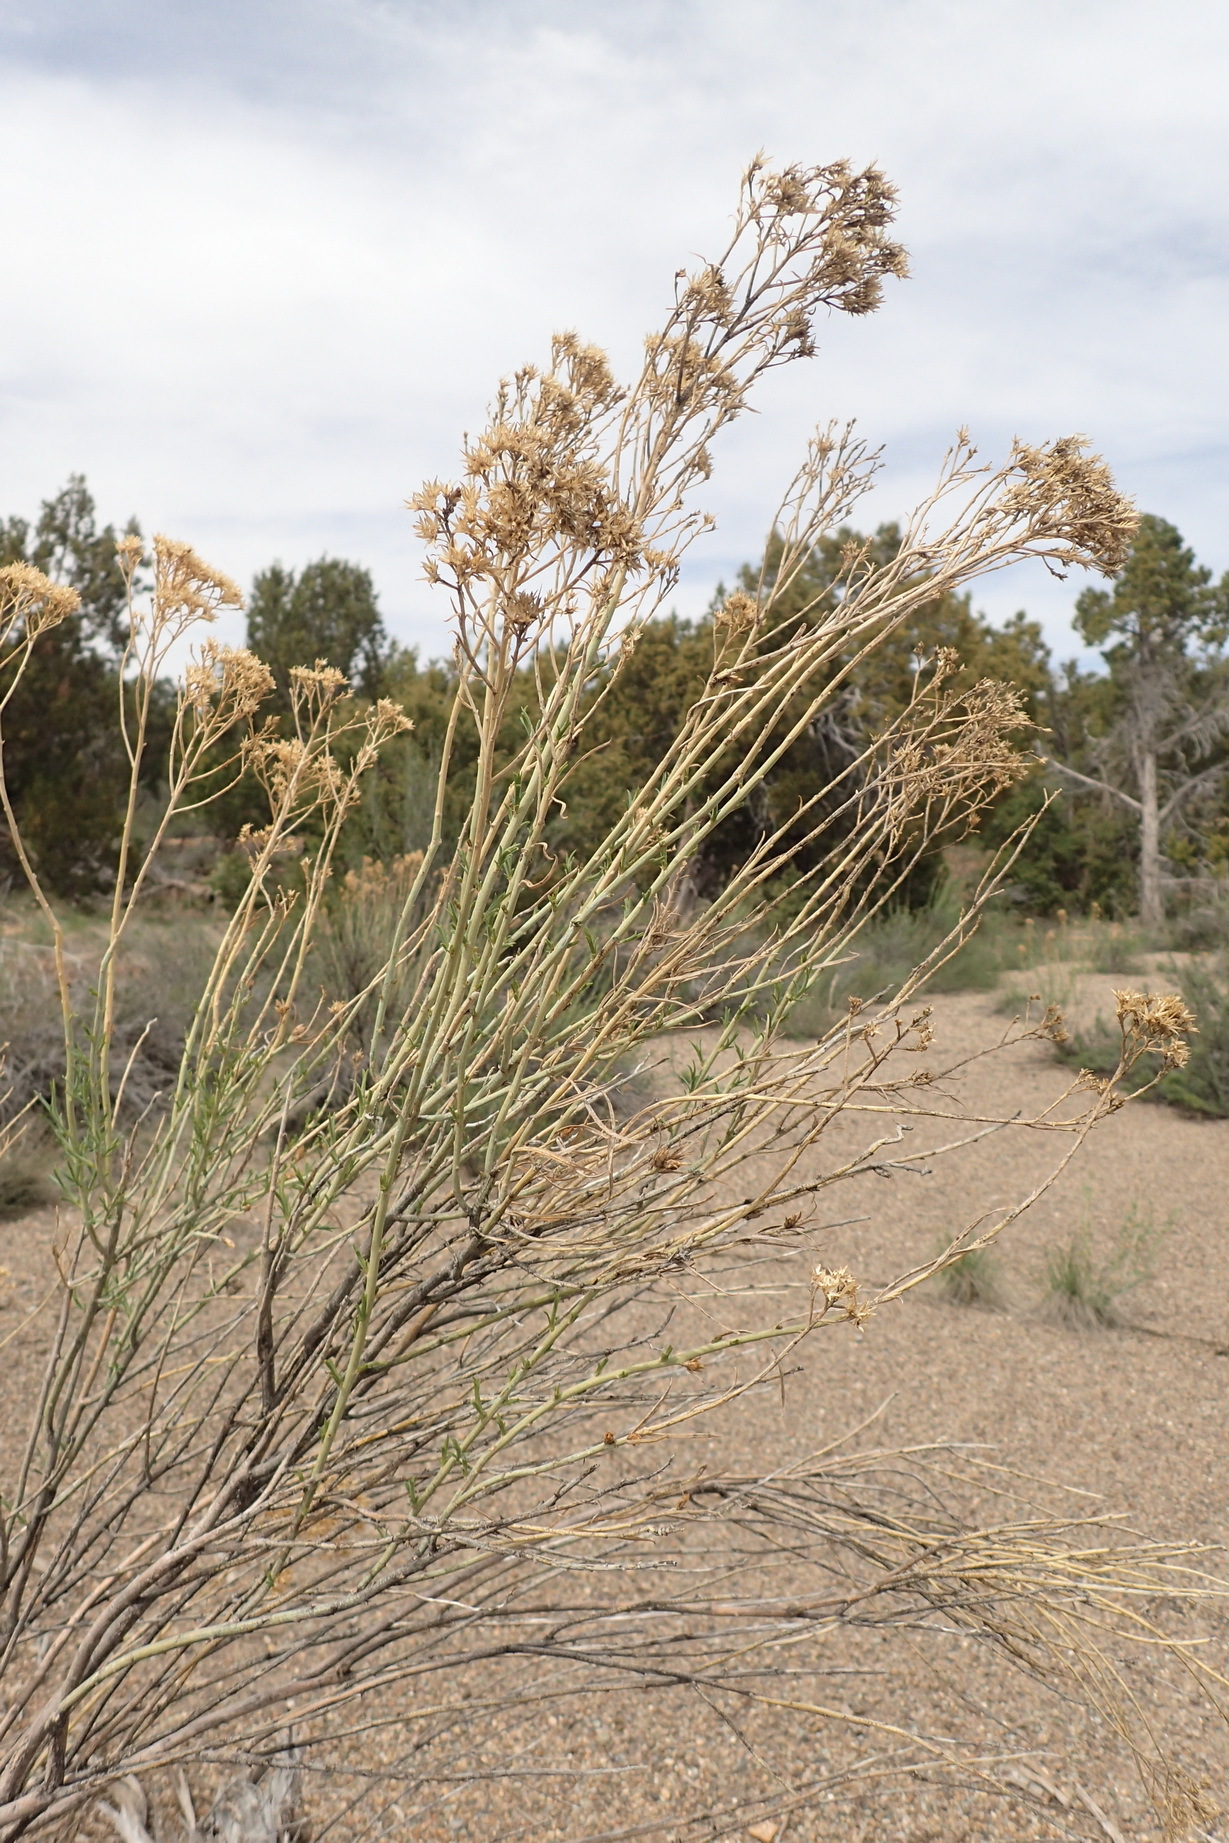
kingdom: Plantae
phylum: Tracheophyta
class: Magnoliopsida
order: Asterales
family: Asteraceae
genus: Ericameria
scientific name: Ericameria nauseosa
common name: Rubber rabbitbrush
